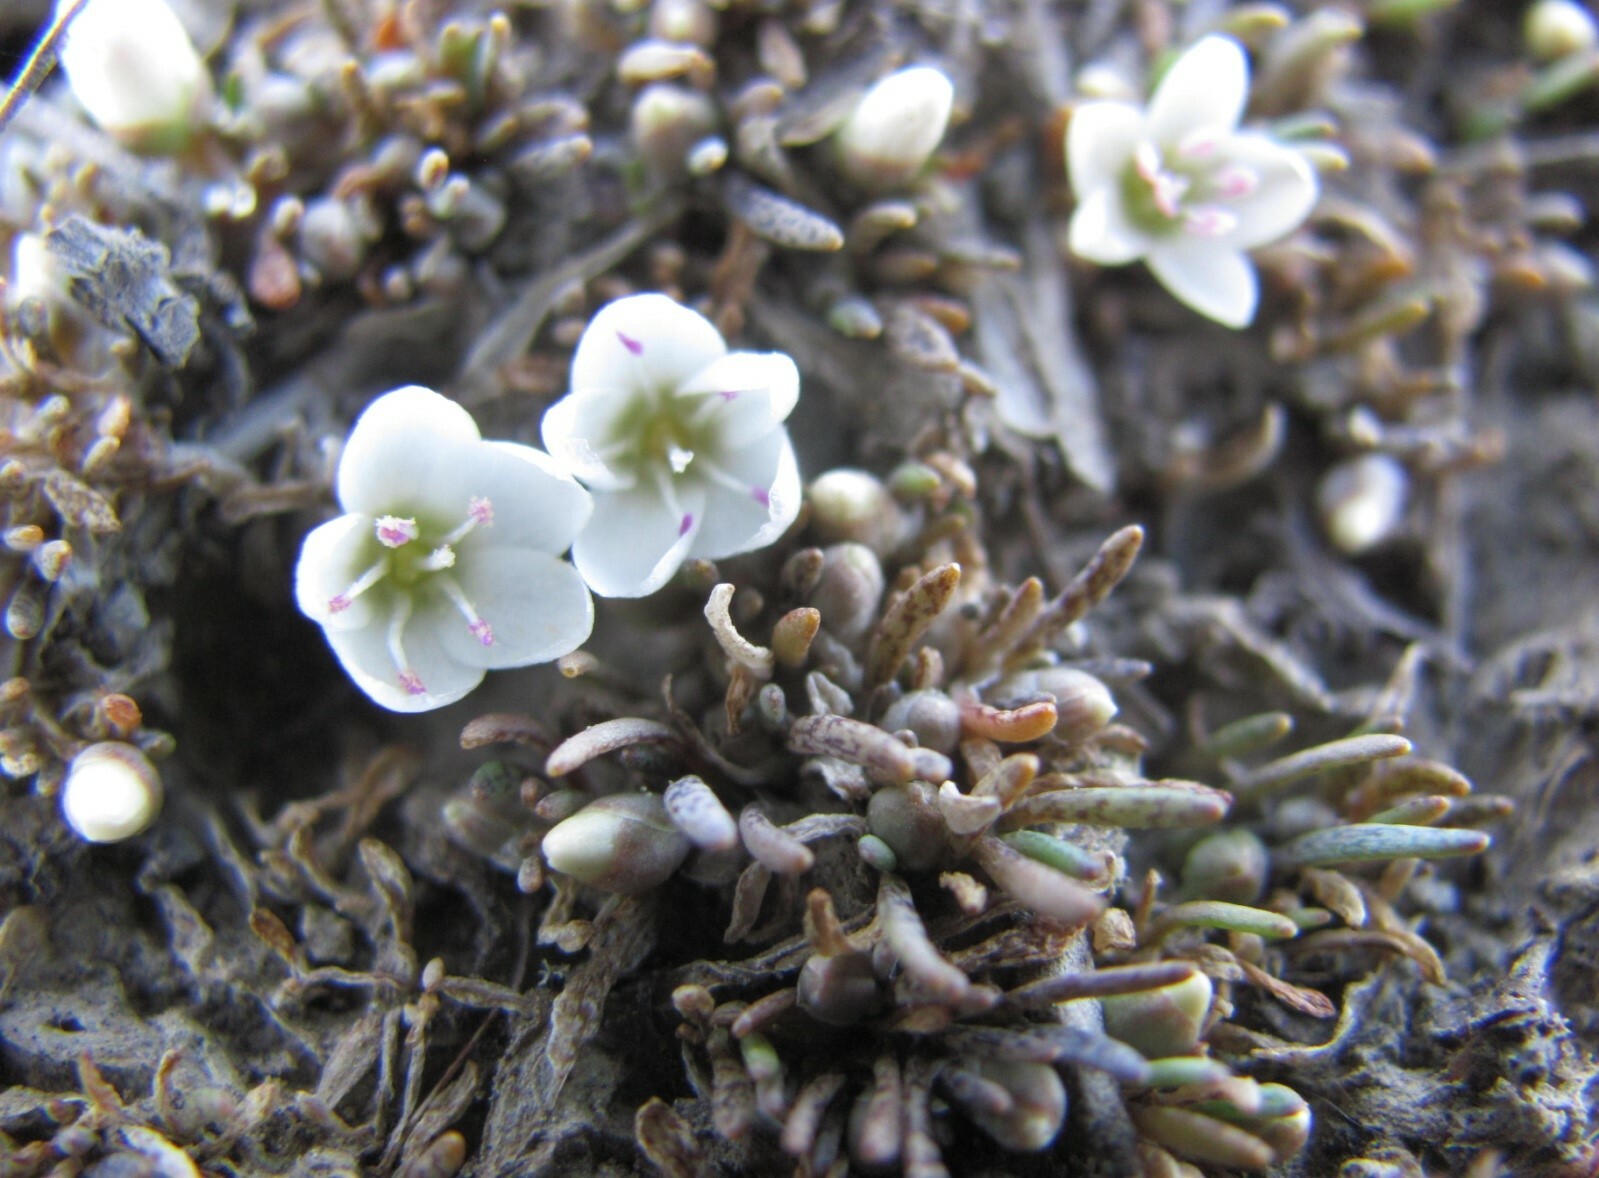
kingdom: Plantae
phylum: Tracheophyta
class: Magnoliopsida
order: Caryophyllales
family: Montiaceae
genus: Montia
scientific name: Montia sessiliflora
